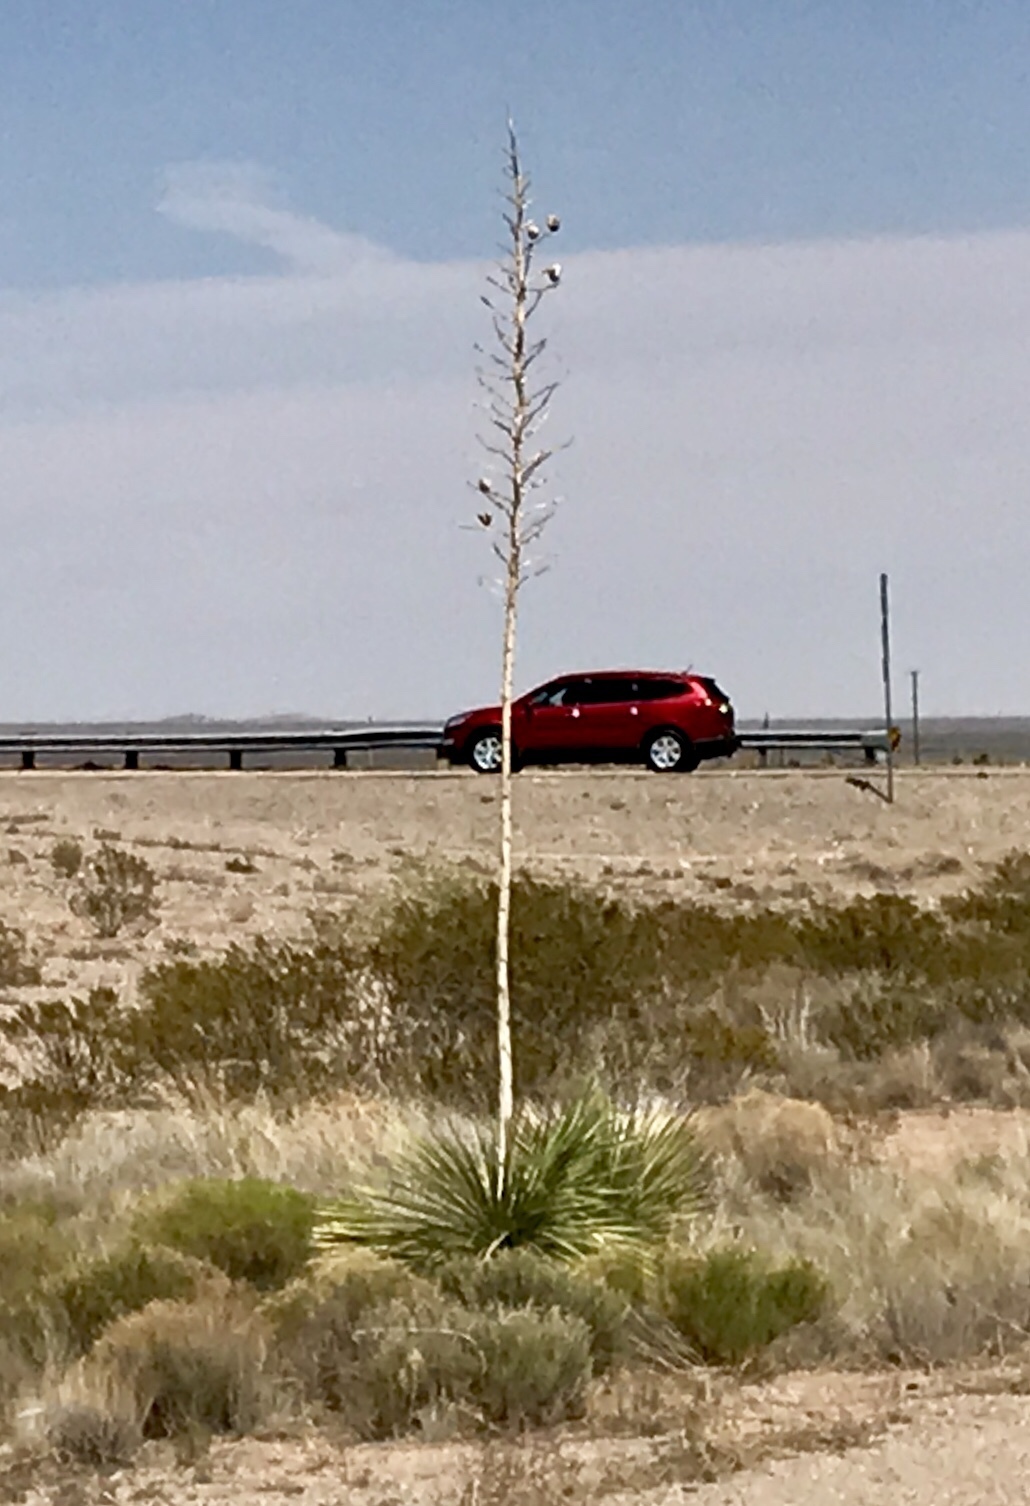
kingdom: Plantae
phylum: Tracheophyta
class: Liliopsida
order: Asparagales
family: Asparagaceae
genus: Yucca
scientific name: Yucca elata
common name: Palmella
